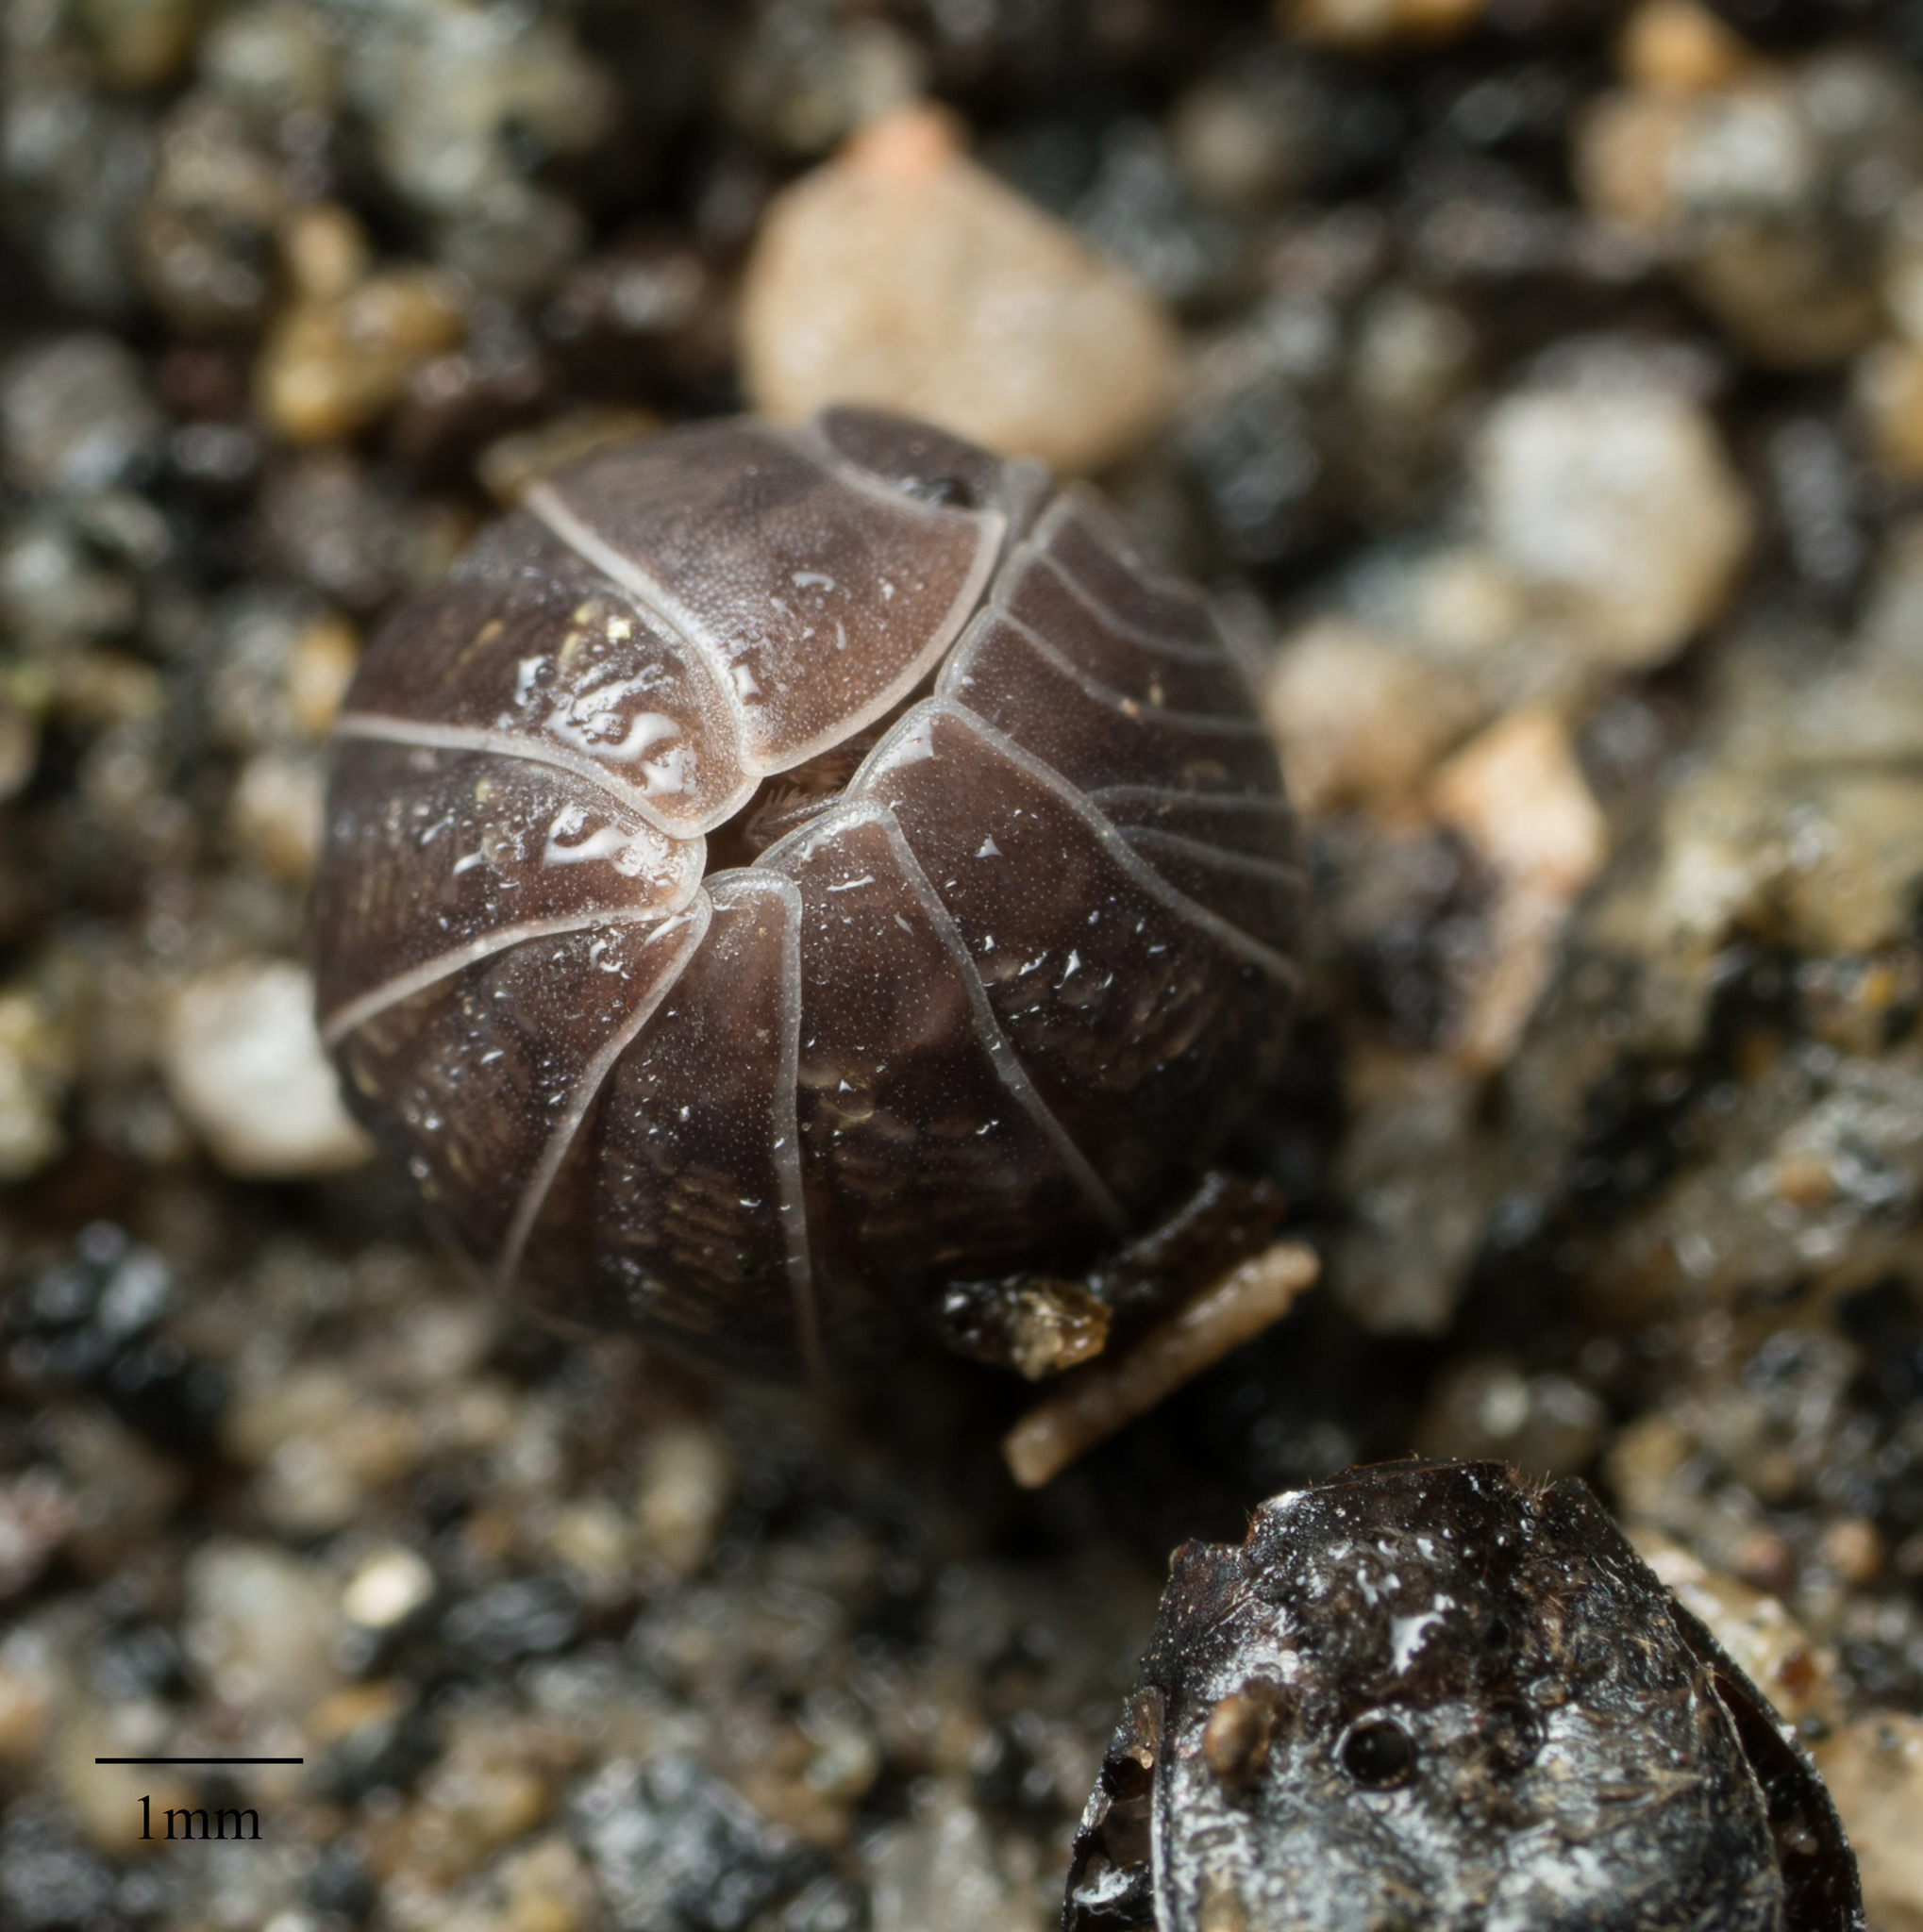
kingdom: Animalia
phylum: Arthropoda
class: Malacostraca
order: Isopoda
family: Armadillidiidae
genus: Armadillidium
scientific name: Armadillidium vulgare
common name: Common pill woodlouse
